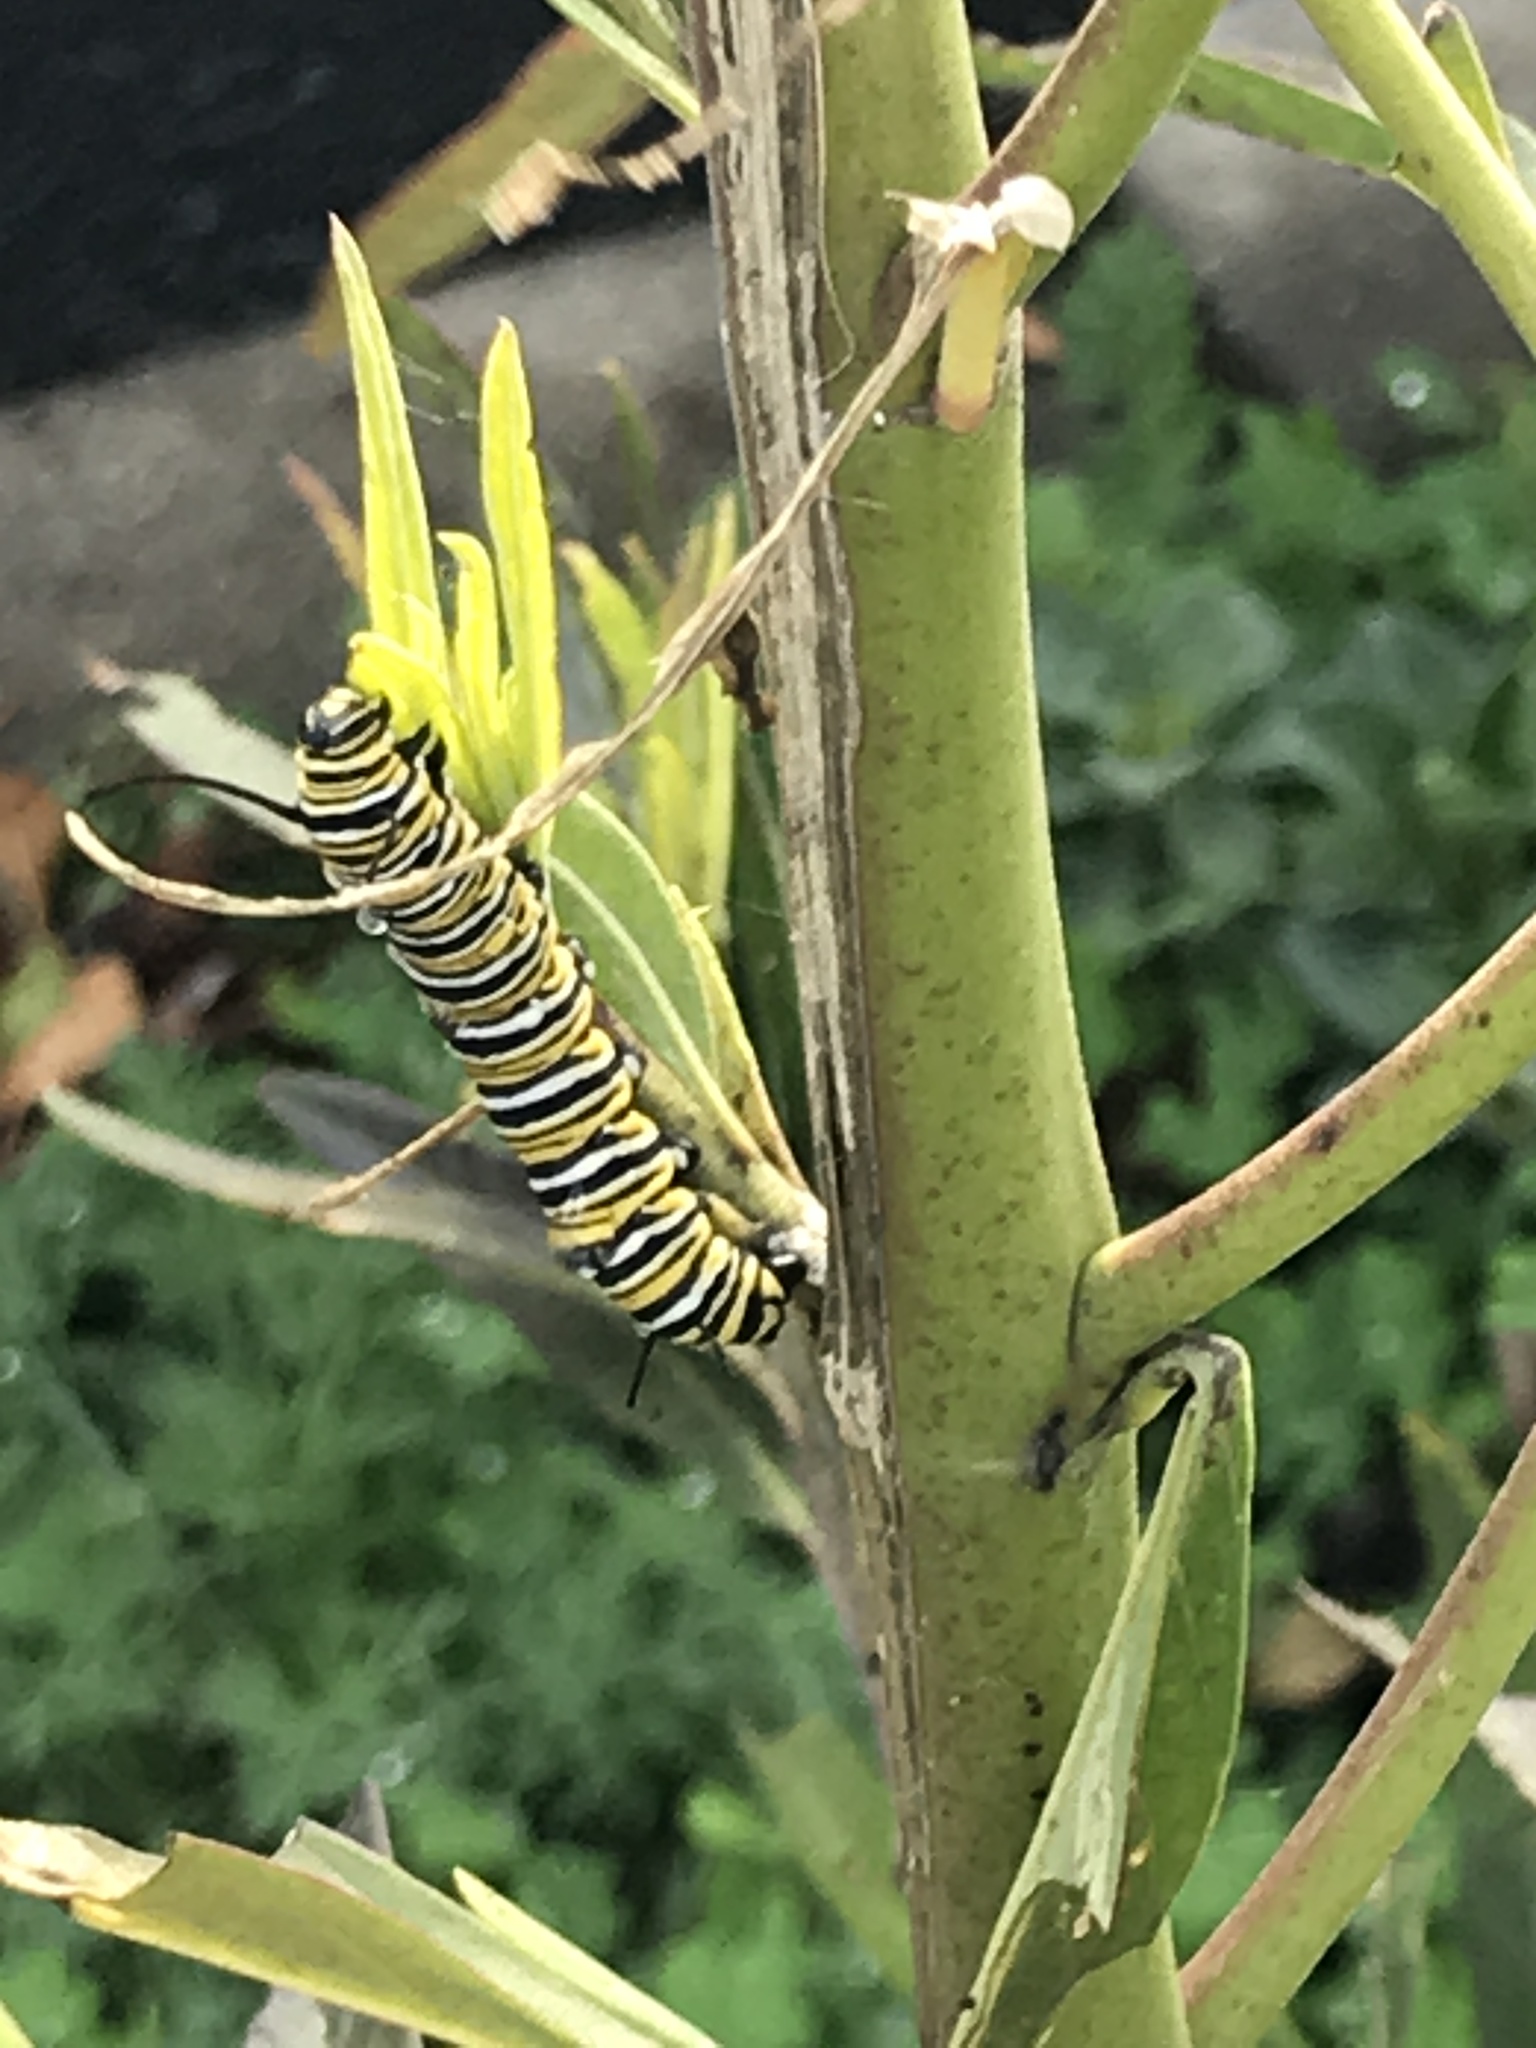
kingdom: Animalia
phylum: Arthropoda
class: Insecta
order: Lepidoptera
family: Nymphalidae
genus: Danaus
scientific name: Danaus plexippus
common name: Monarch
